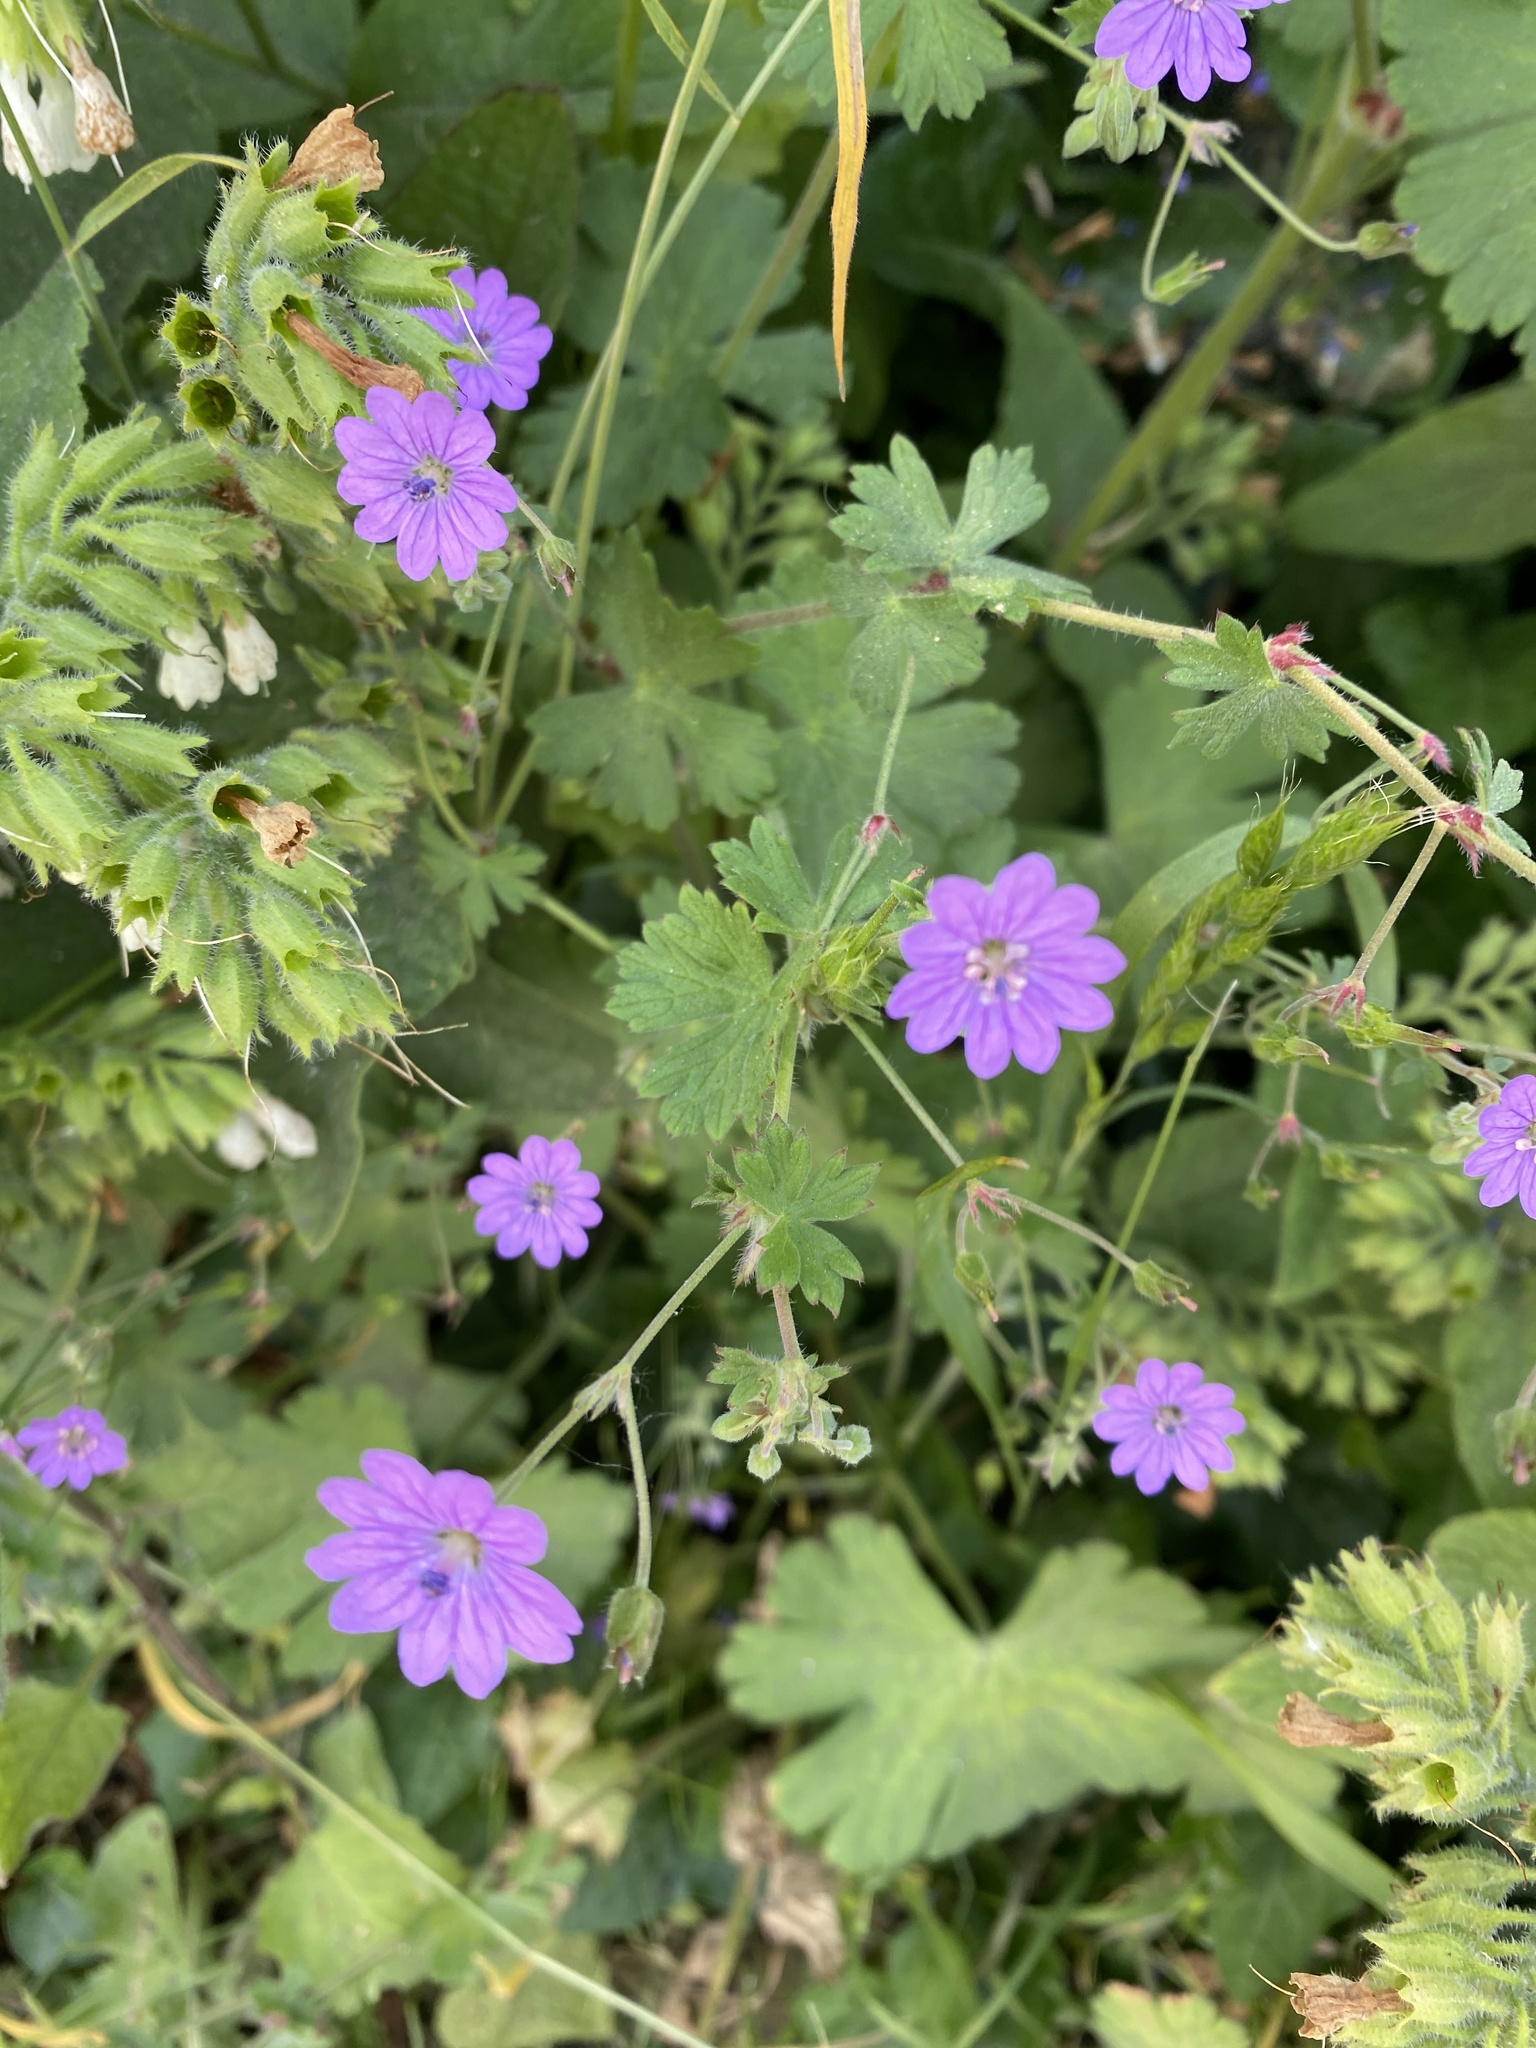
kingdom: Plantae
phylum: Tracheophyta
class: Magnoliopsida
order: Geraniales
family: Geraniaceae
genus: Geranium
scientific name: Geranium pyrenaicum
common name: Hedgerow crane's-bill
